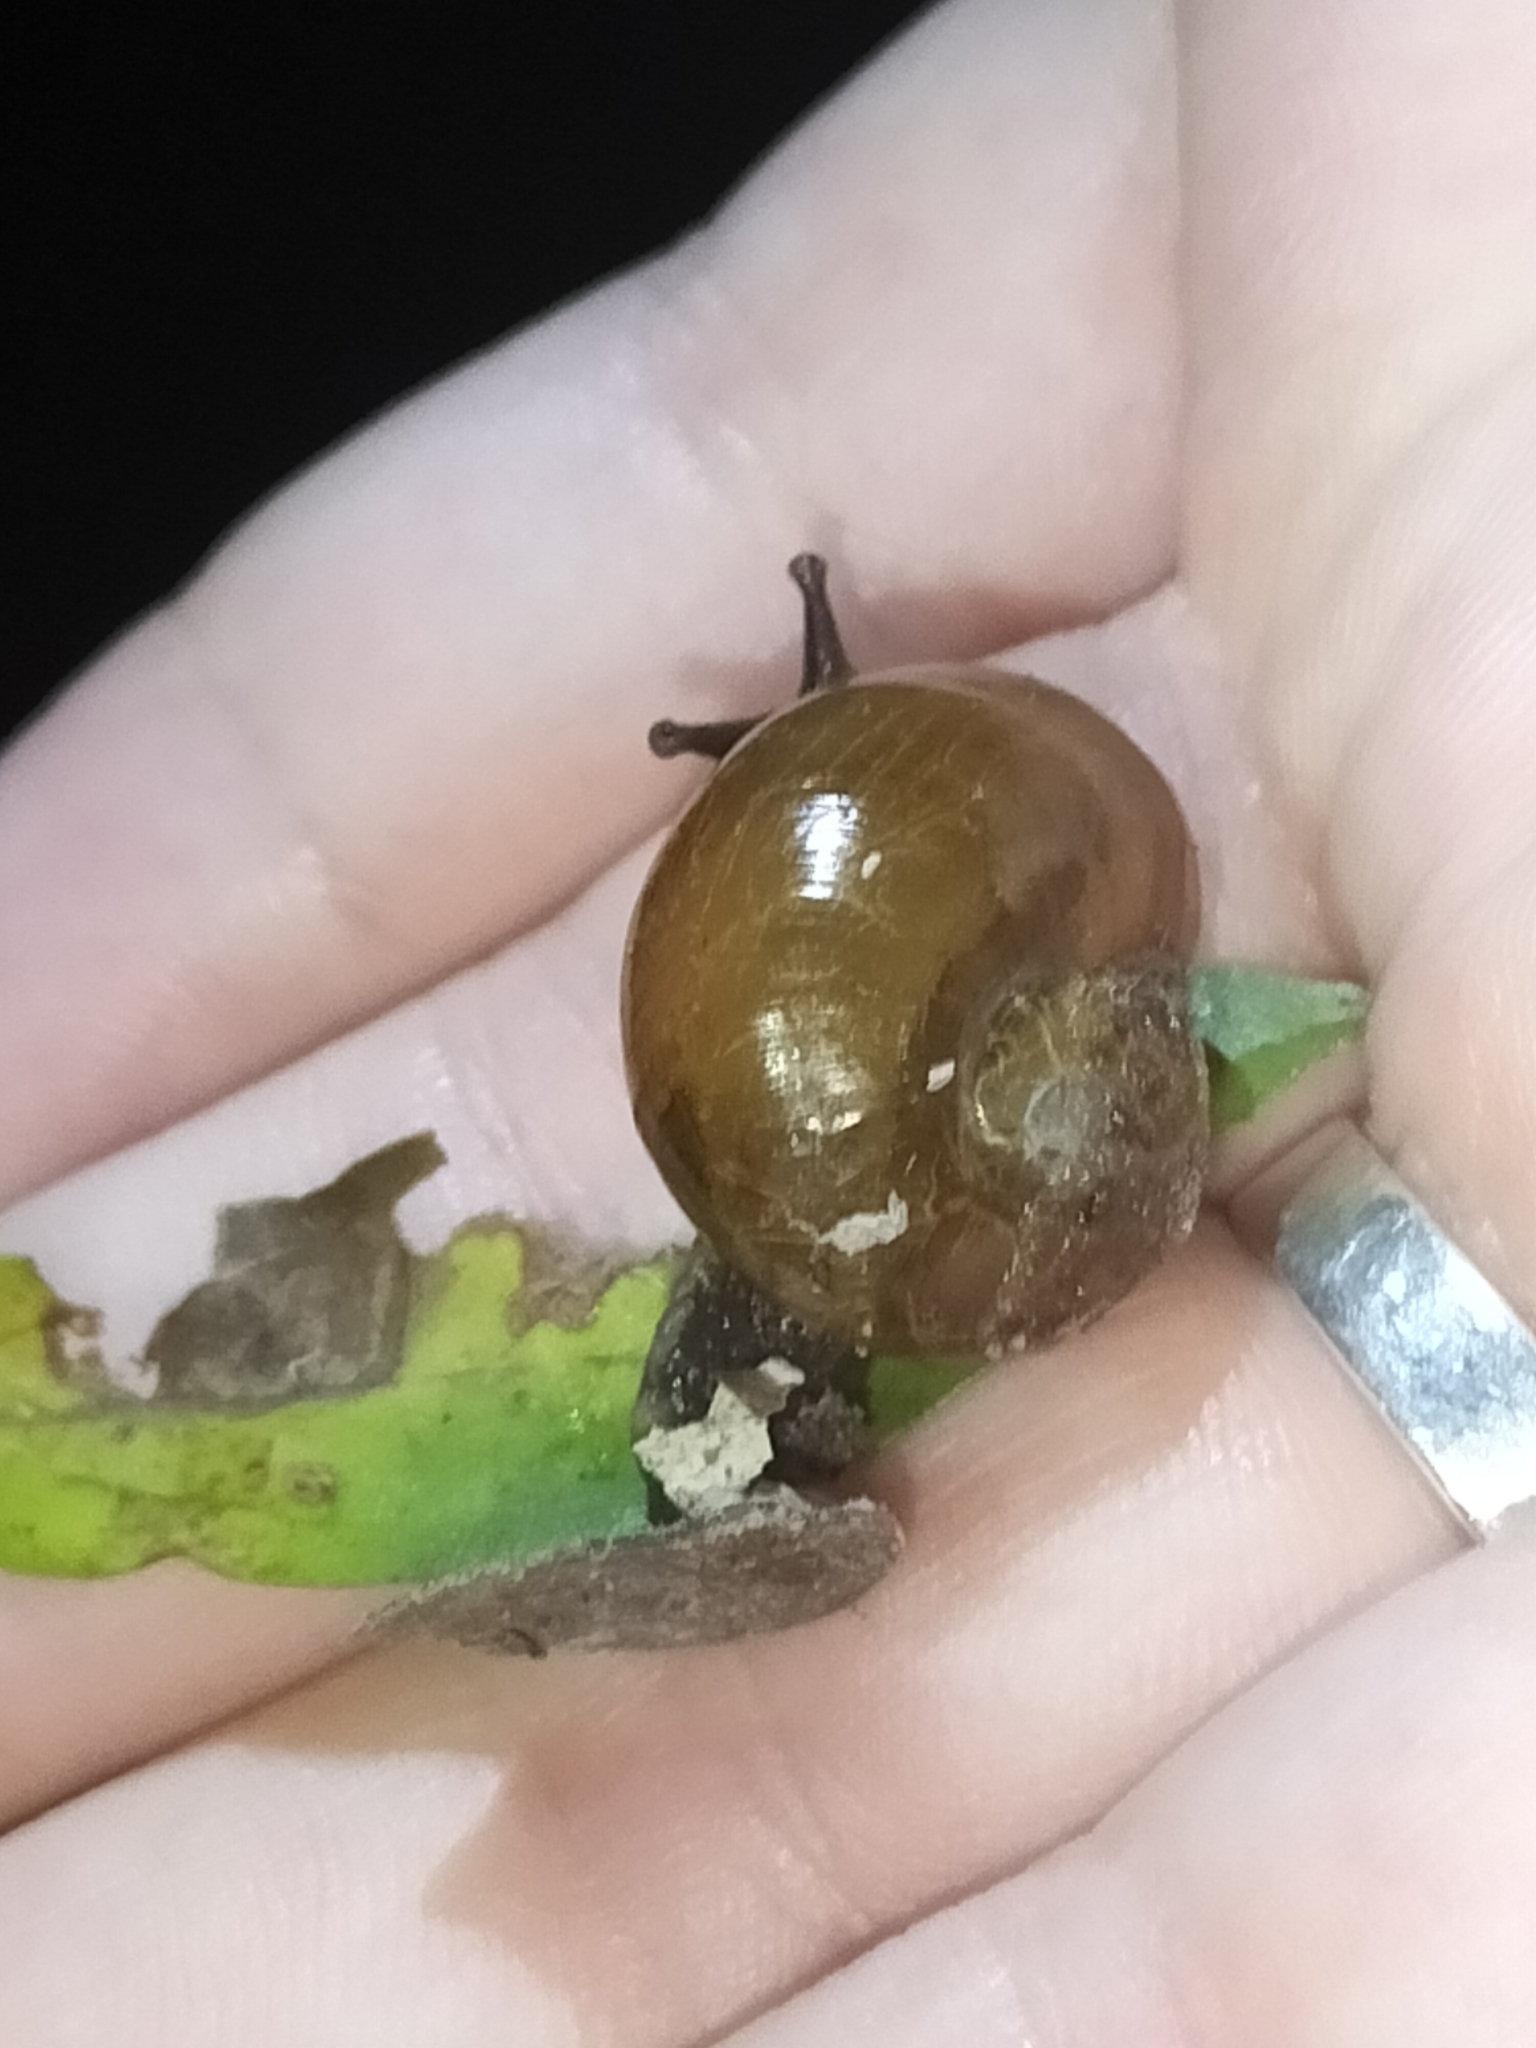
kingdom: Animalia
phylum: Mollusca
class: Gastropoda
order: Stylommatophora
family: Helicarionidae
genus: Fastosarion
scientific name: Fastosarion brazieri
